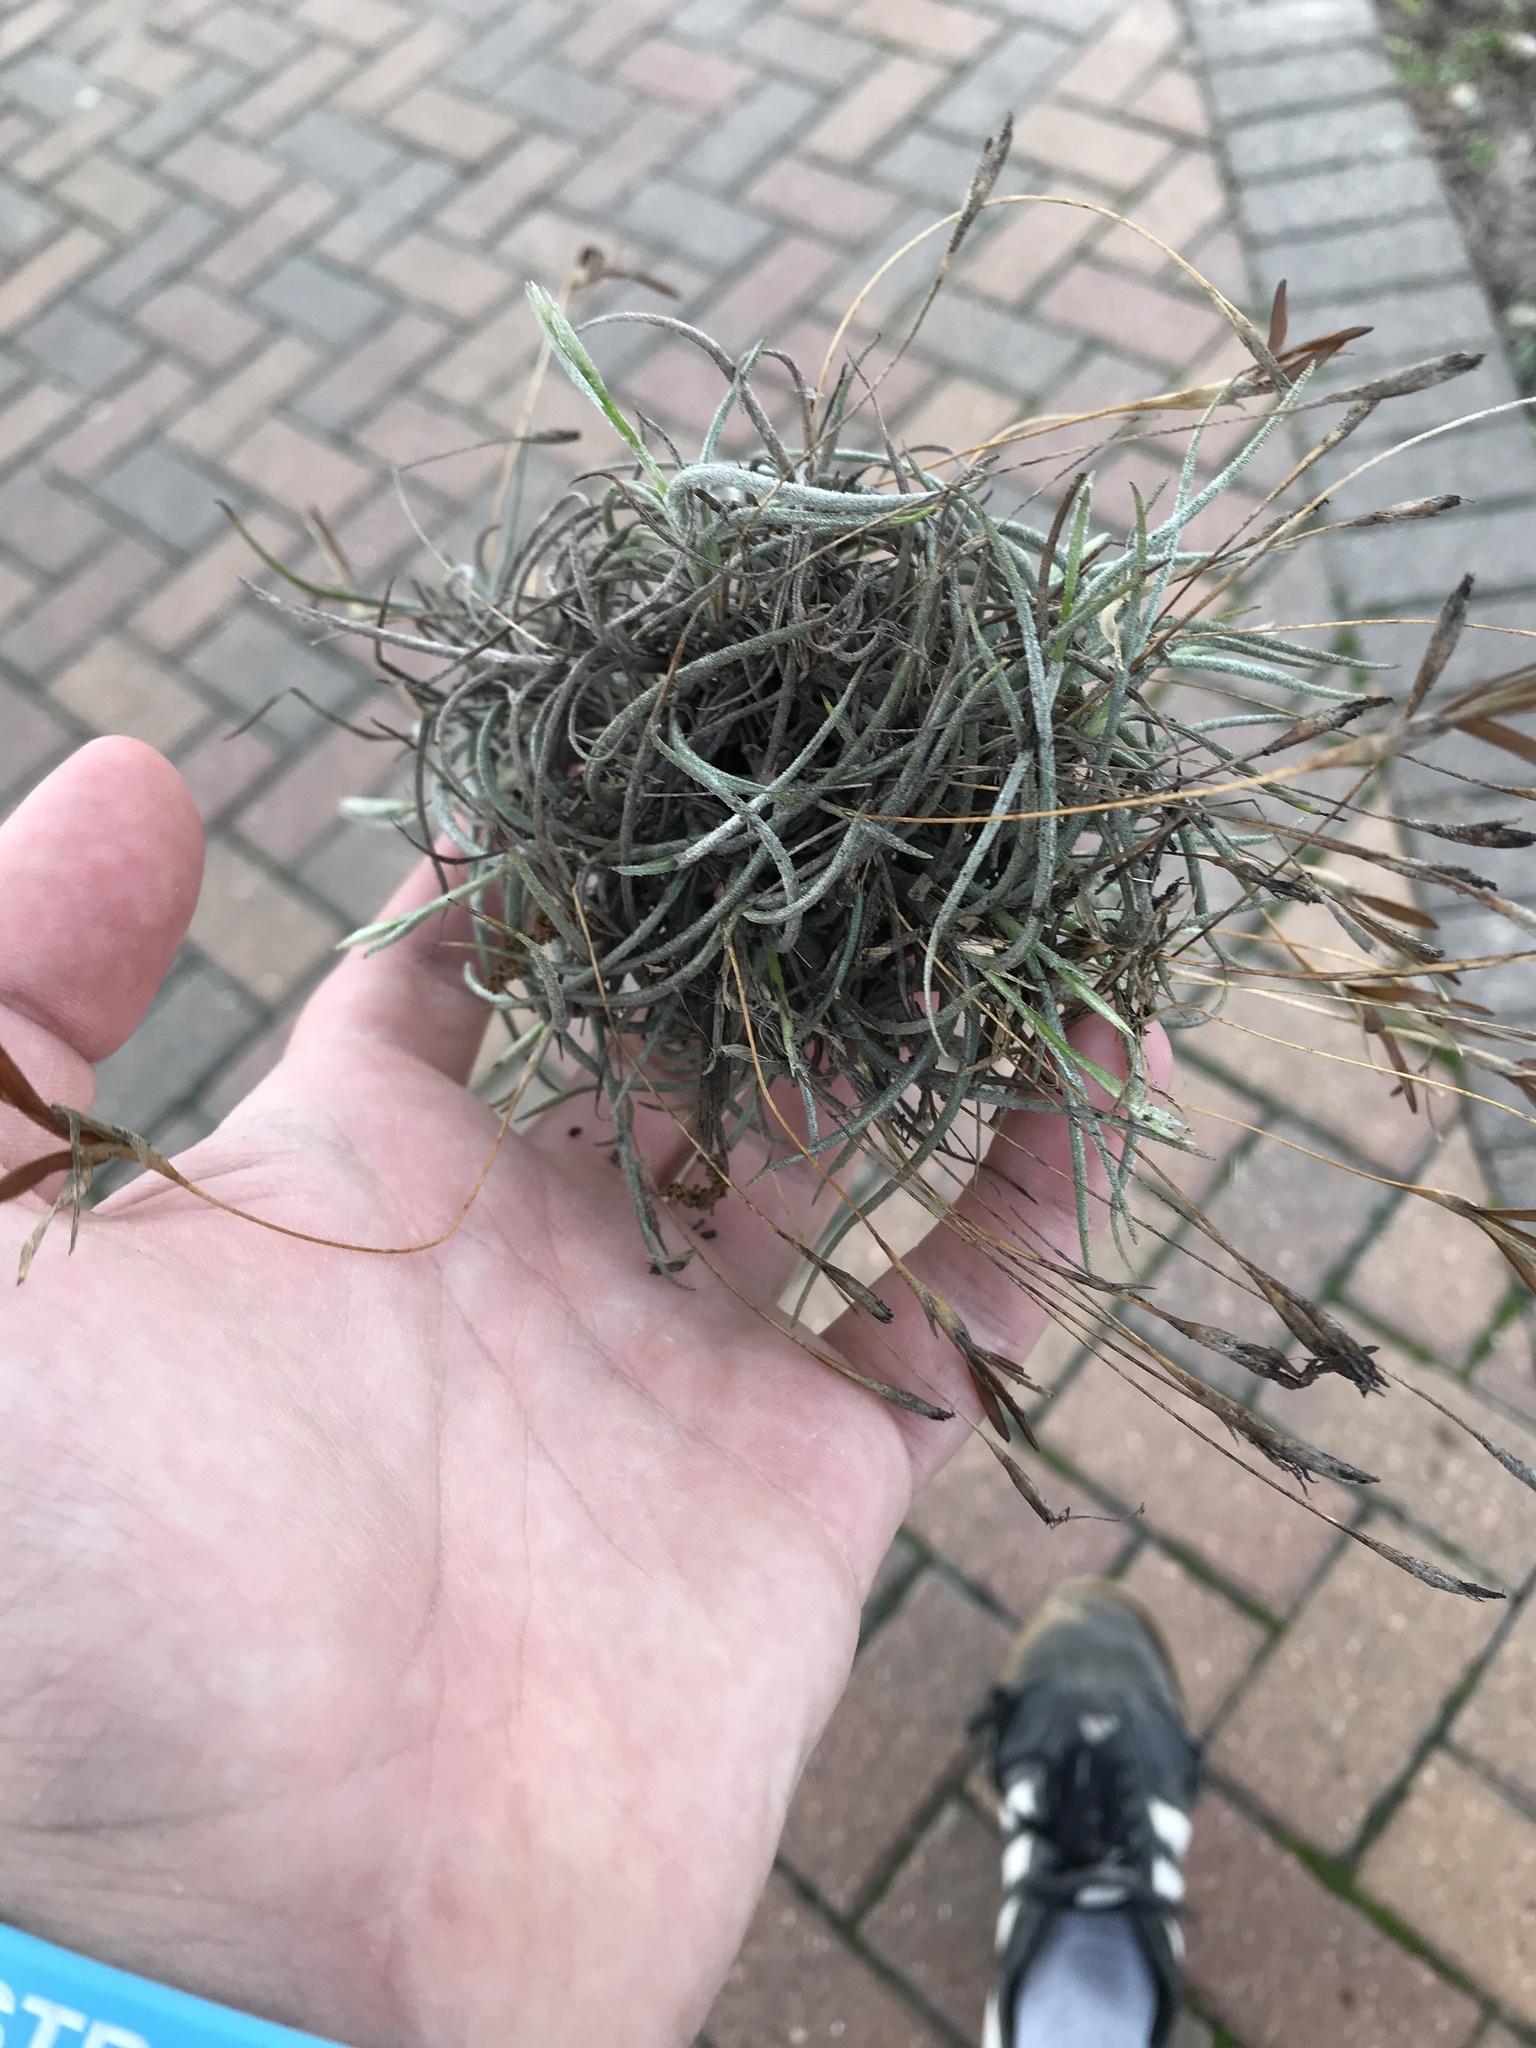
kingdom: Plantae
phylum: Tracheophyta
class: Liliopsida
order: Poales
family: Bromeliaceae
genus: Tillandsia
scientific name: Tillandsia recurvata
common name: Small ballmoss
